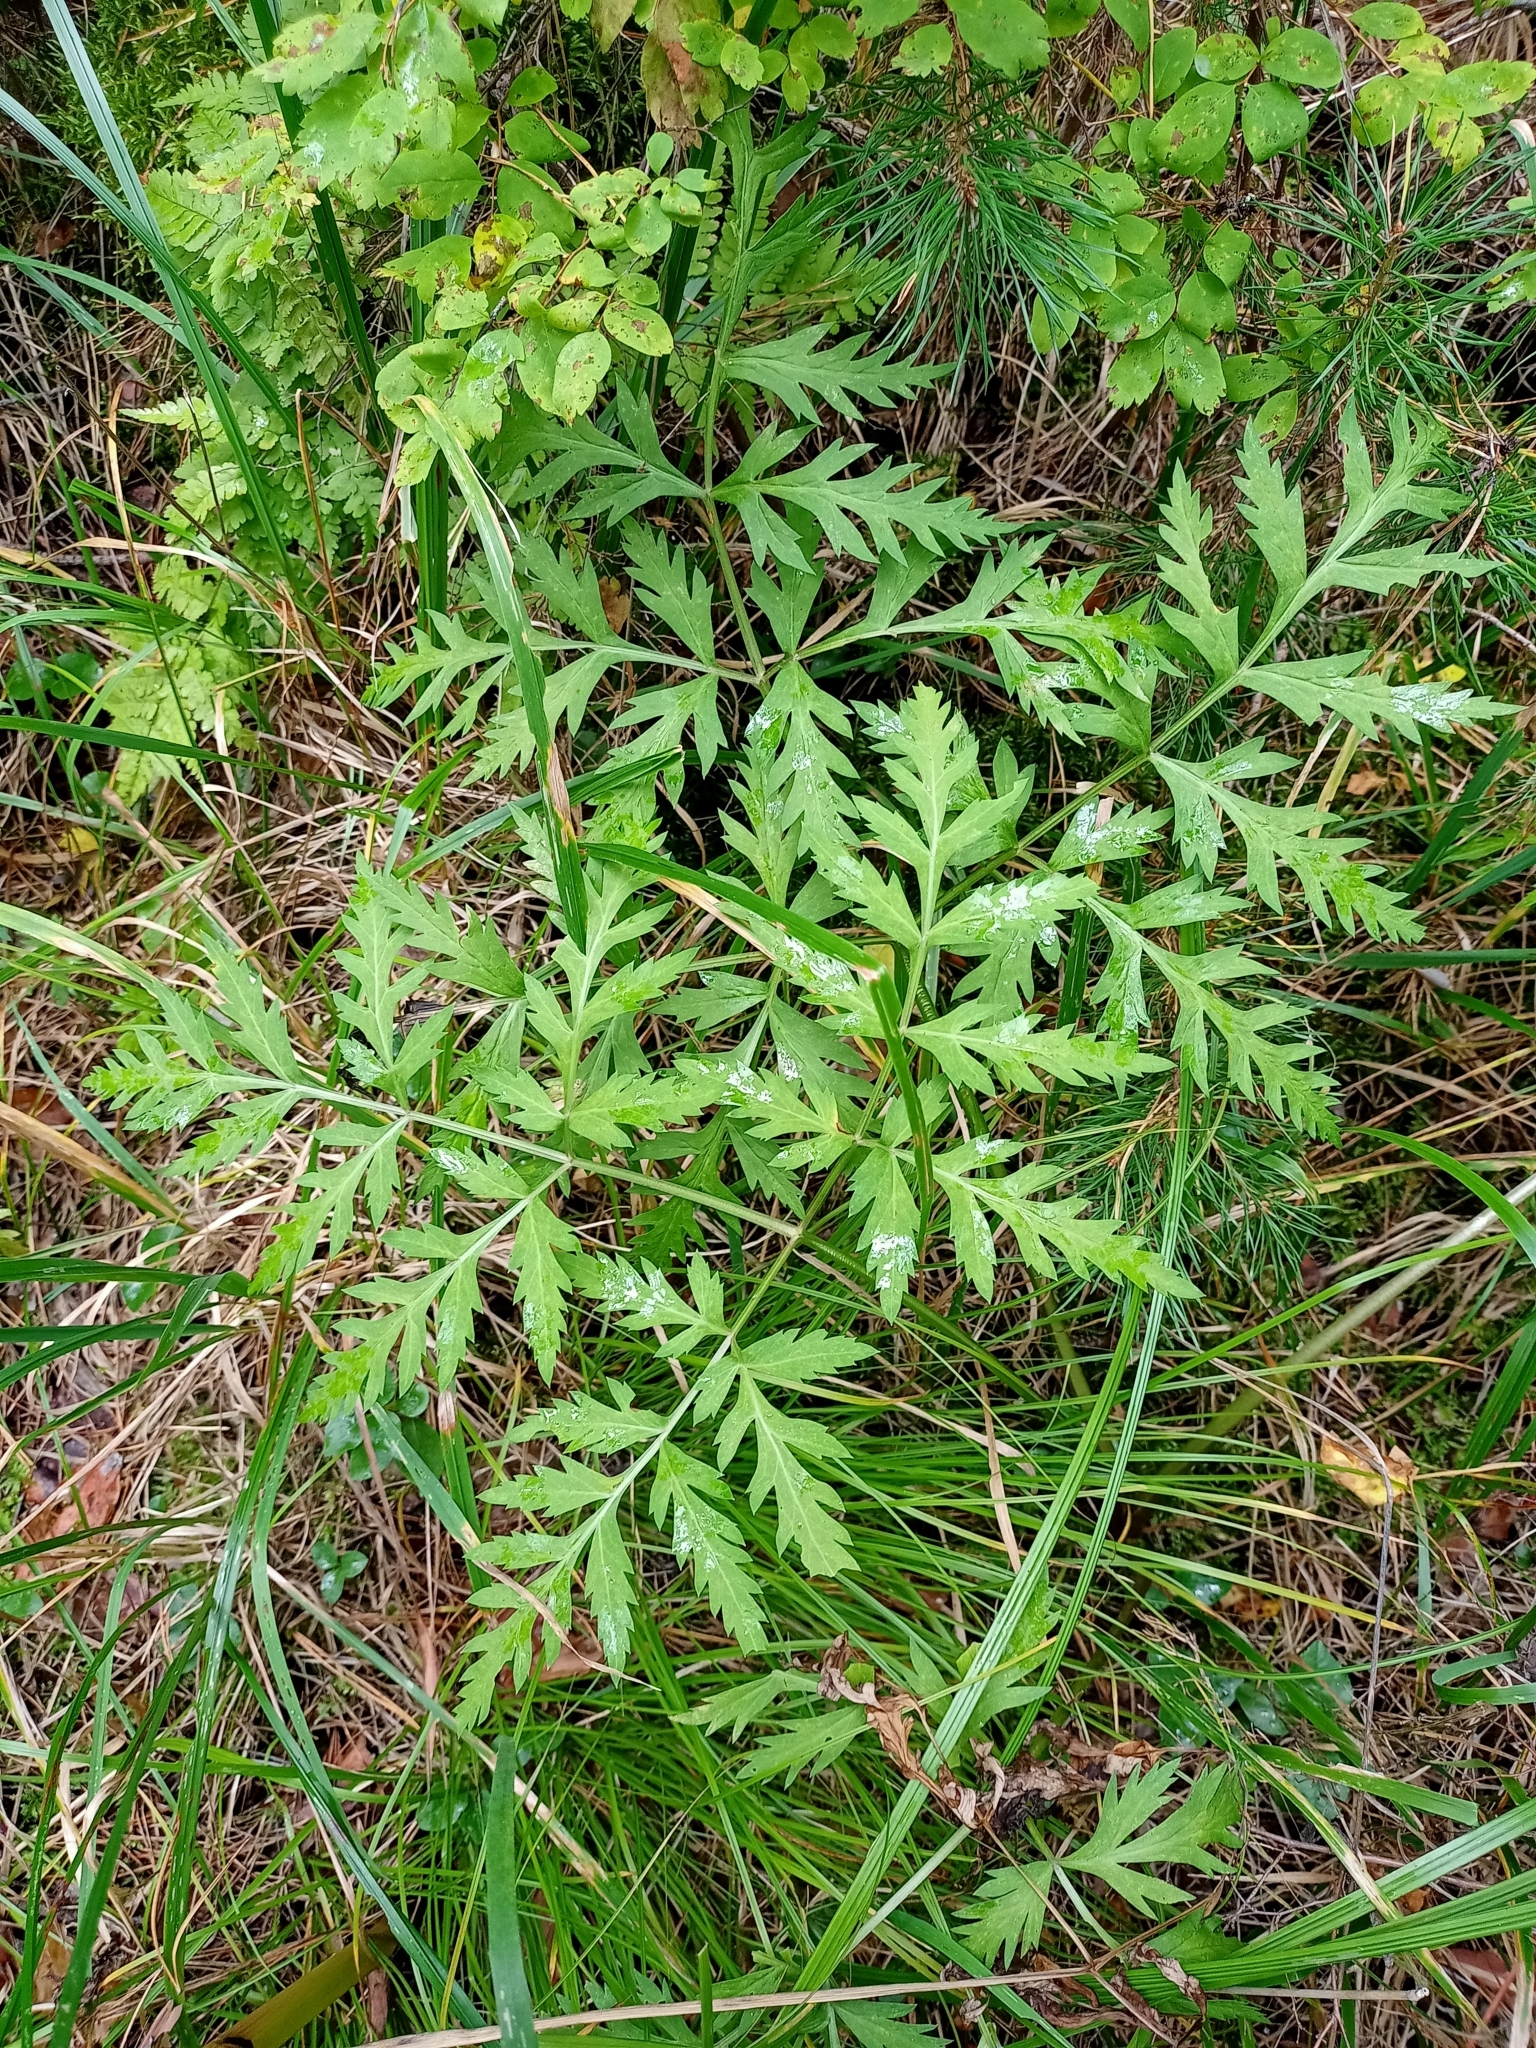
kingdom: Plantae
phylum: Tracheophyta
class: Magnoliopsida
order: Apiales
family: Apiaceae
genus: Pleurospermum
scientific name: Pleurospermum uralense
